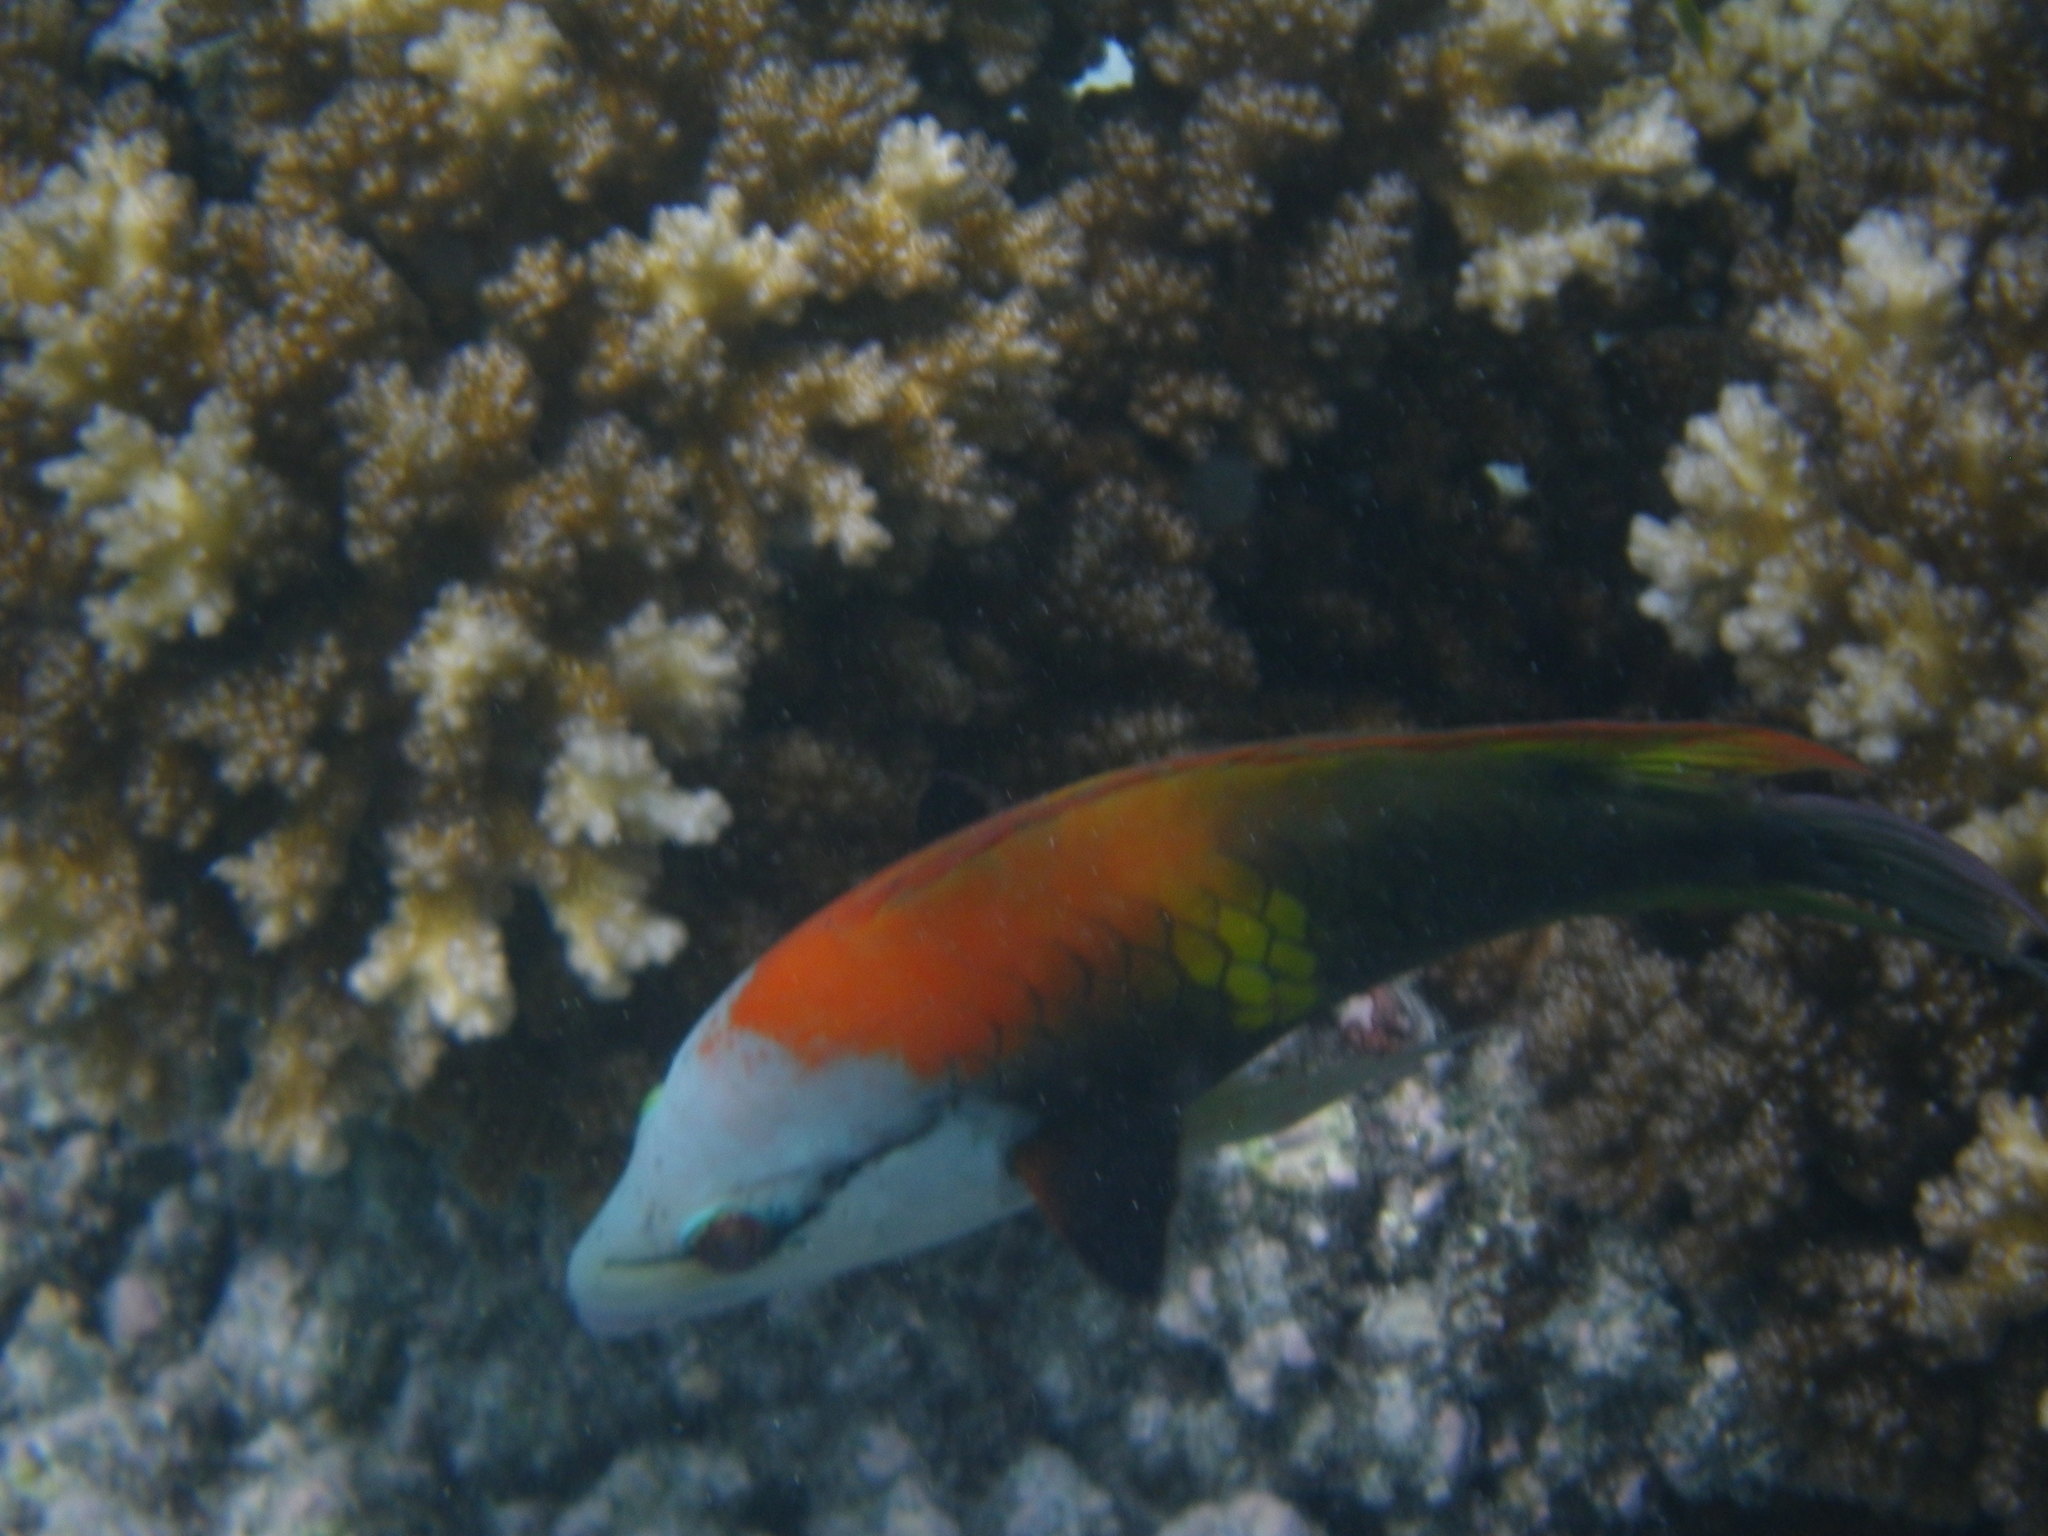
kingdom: Animalia
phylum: Chordata
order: Perciformes
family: Labridae
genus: Epibulus
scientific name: Epibulus insidiator
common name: Slingjaw wrasse
